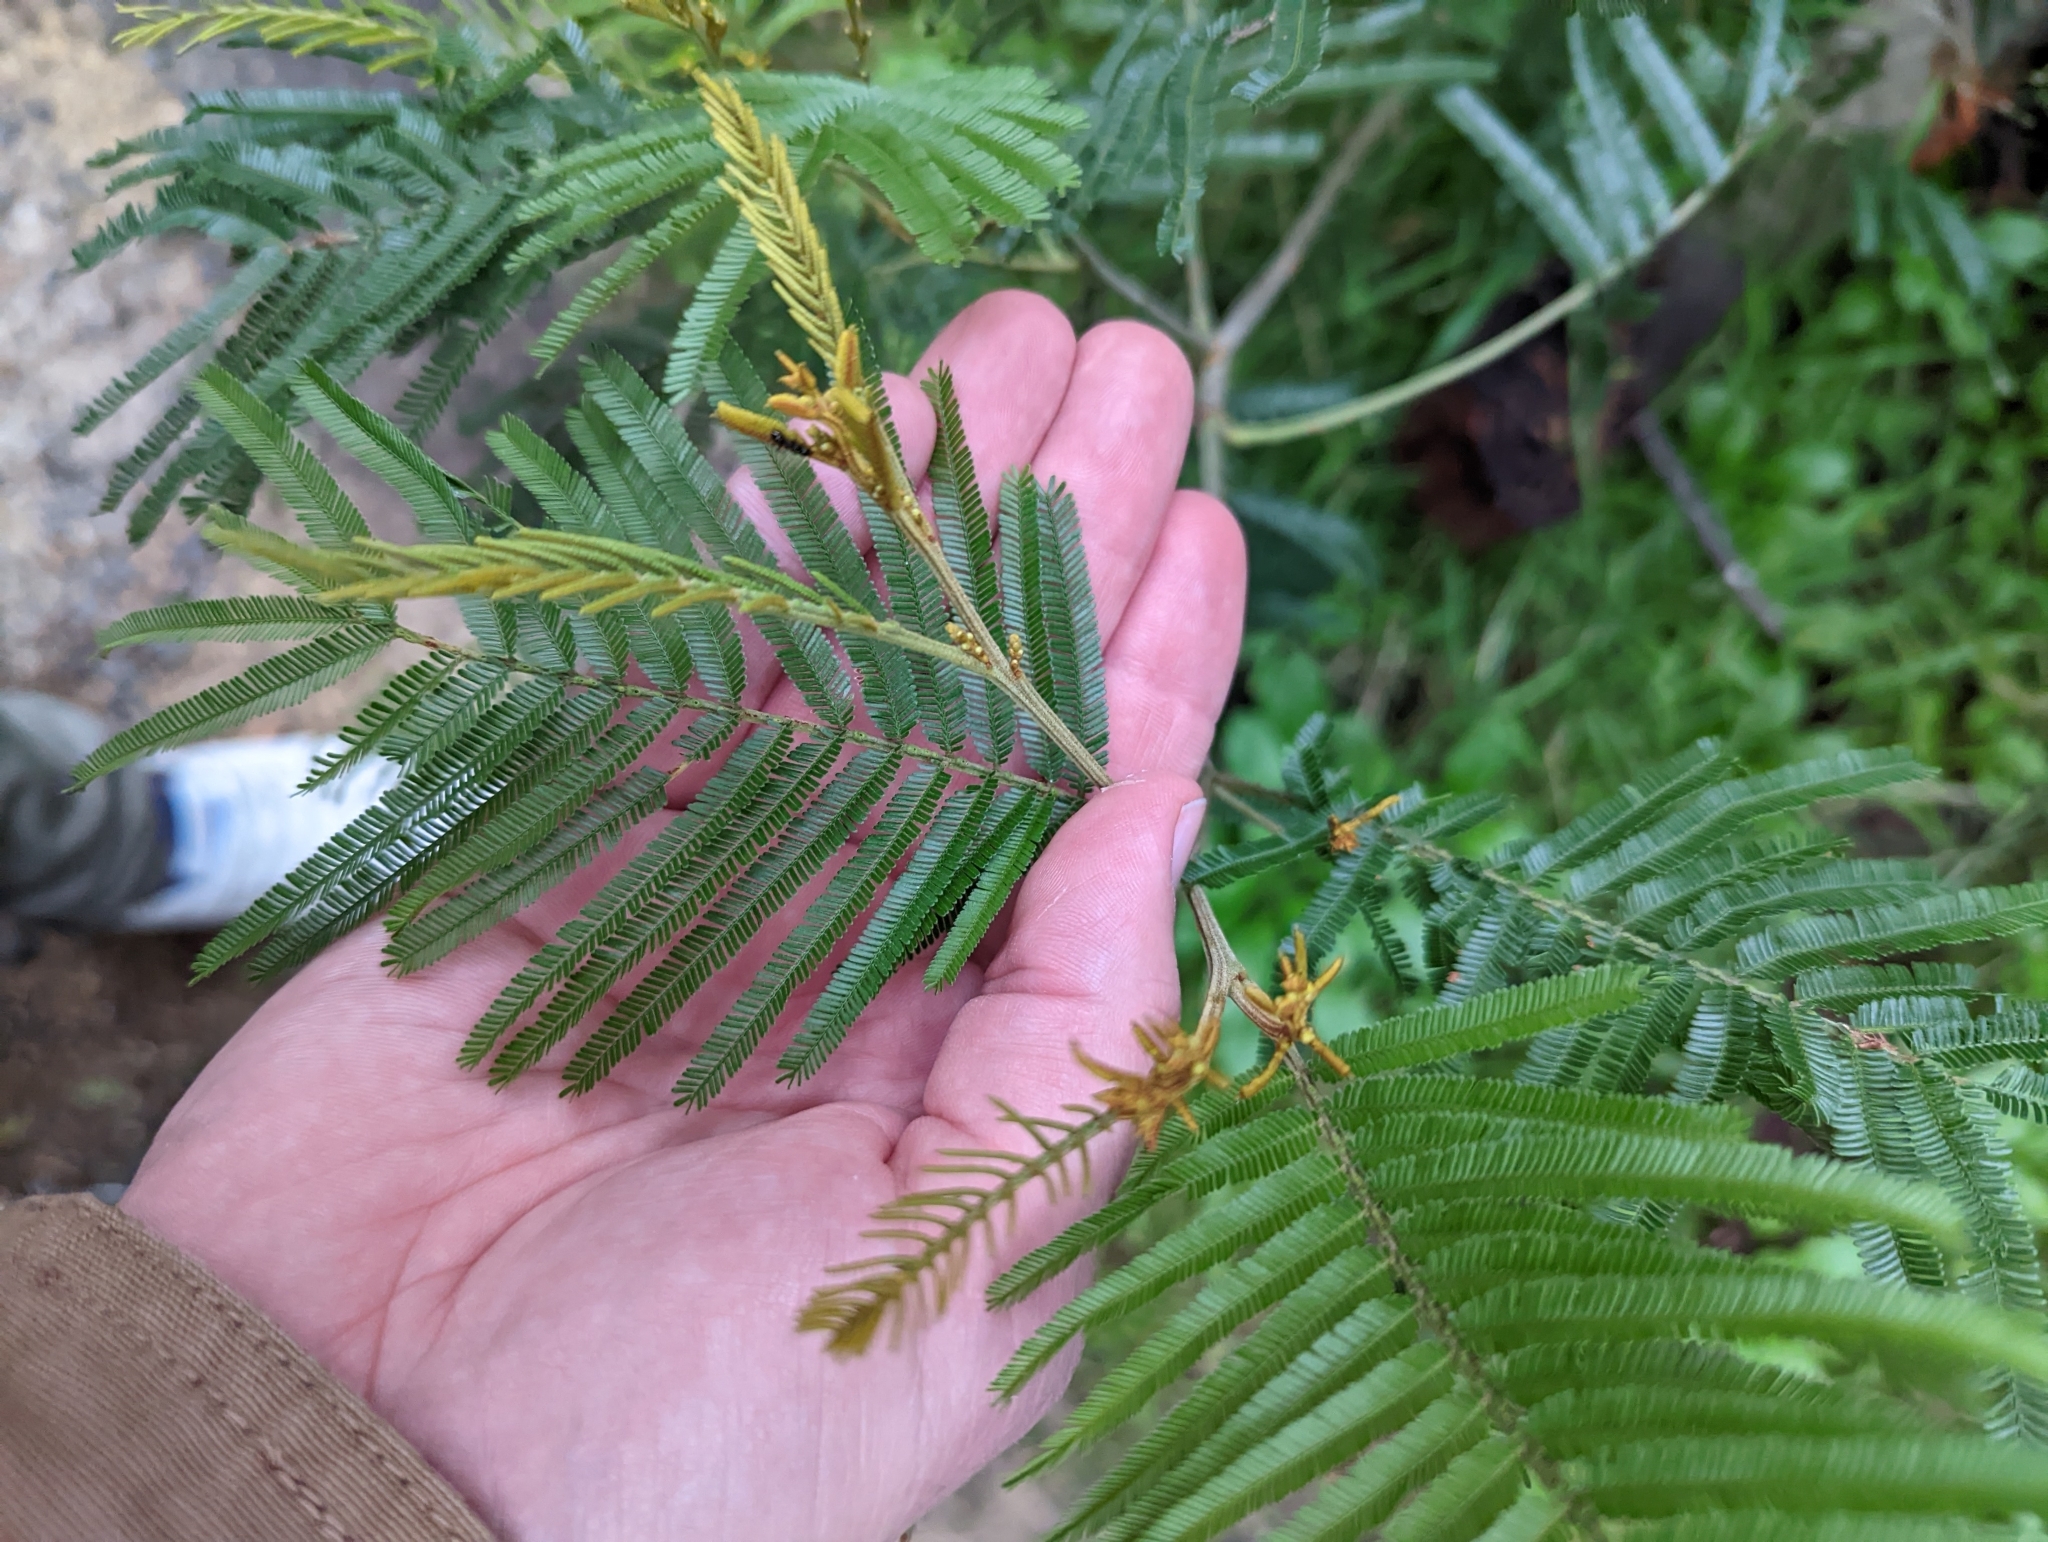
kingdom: Plantae
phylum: Tracheophyta
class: Magnoliopsida
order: Fabales
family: Fabaceae
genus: Acacia
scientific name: Acacia mearnsii
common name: Black wattle
